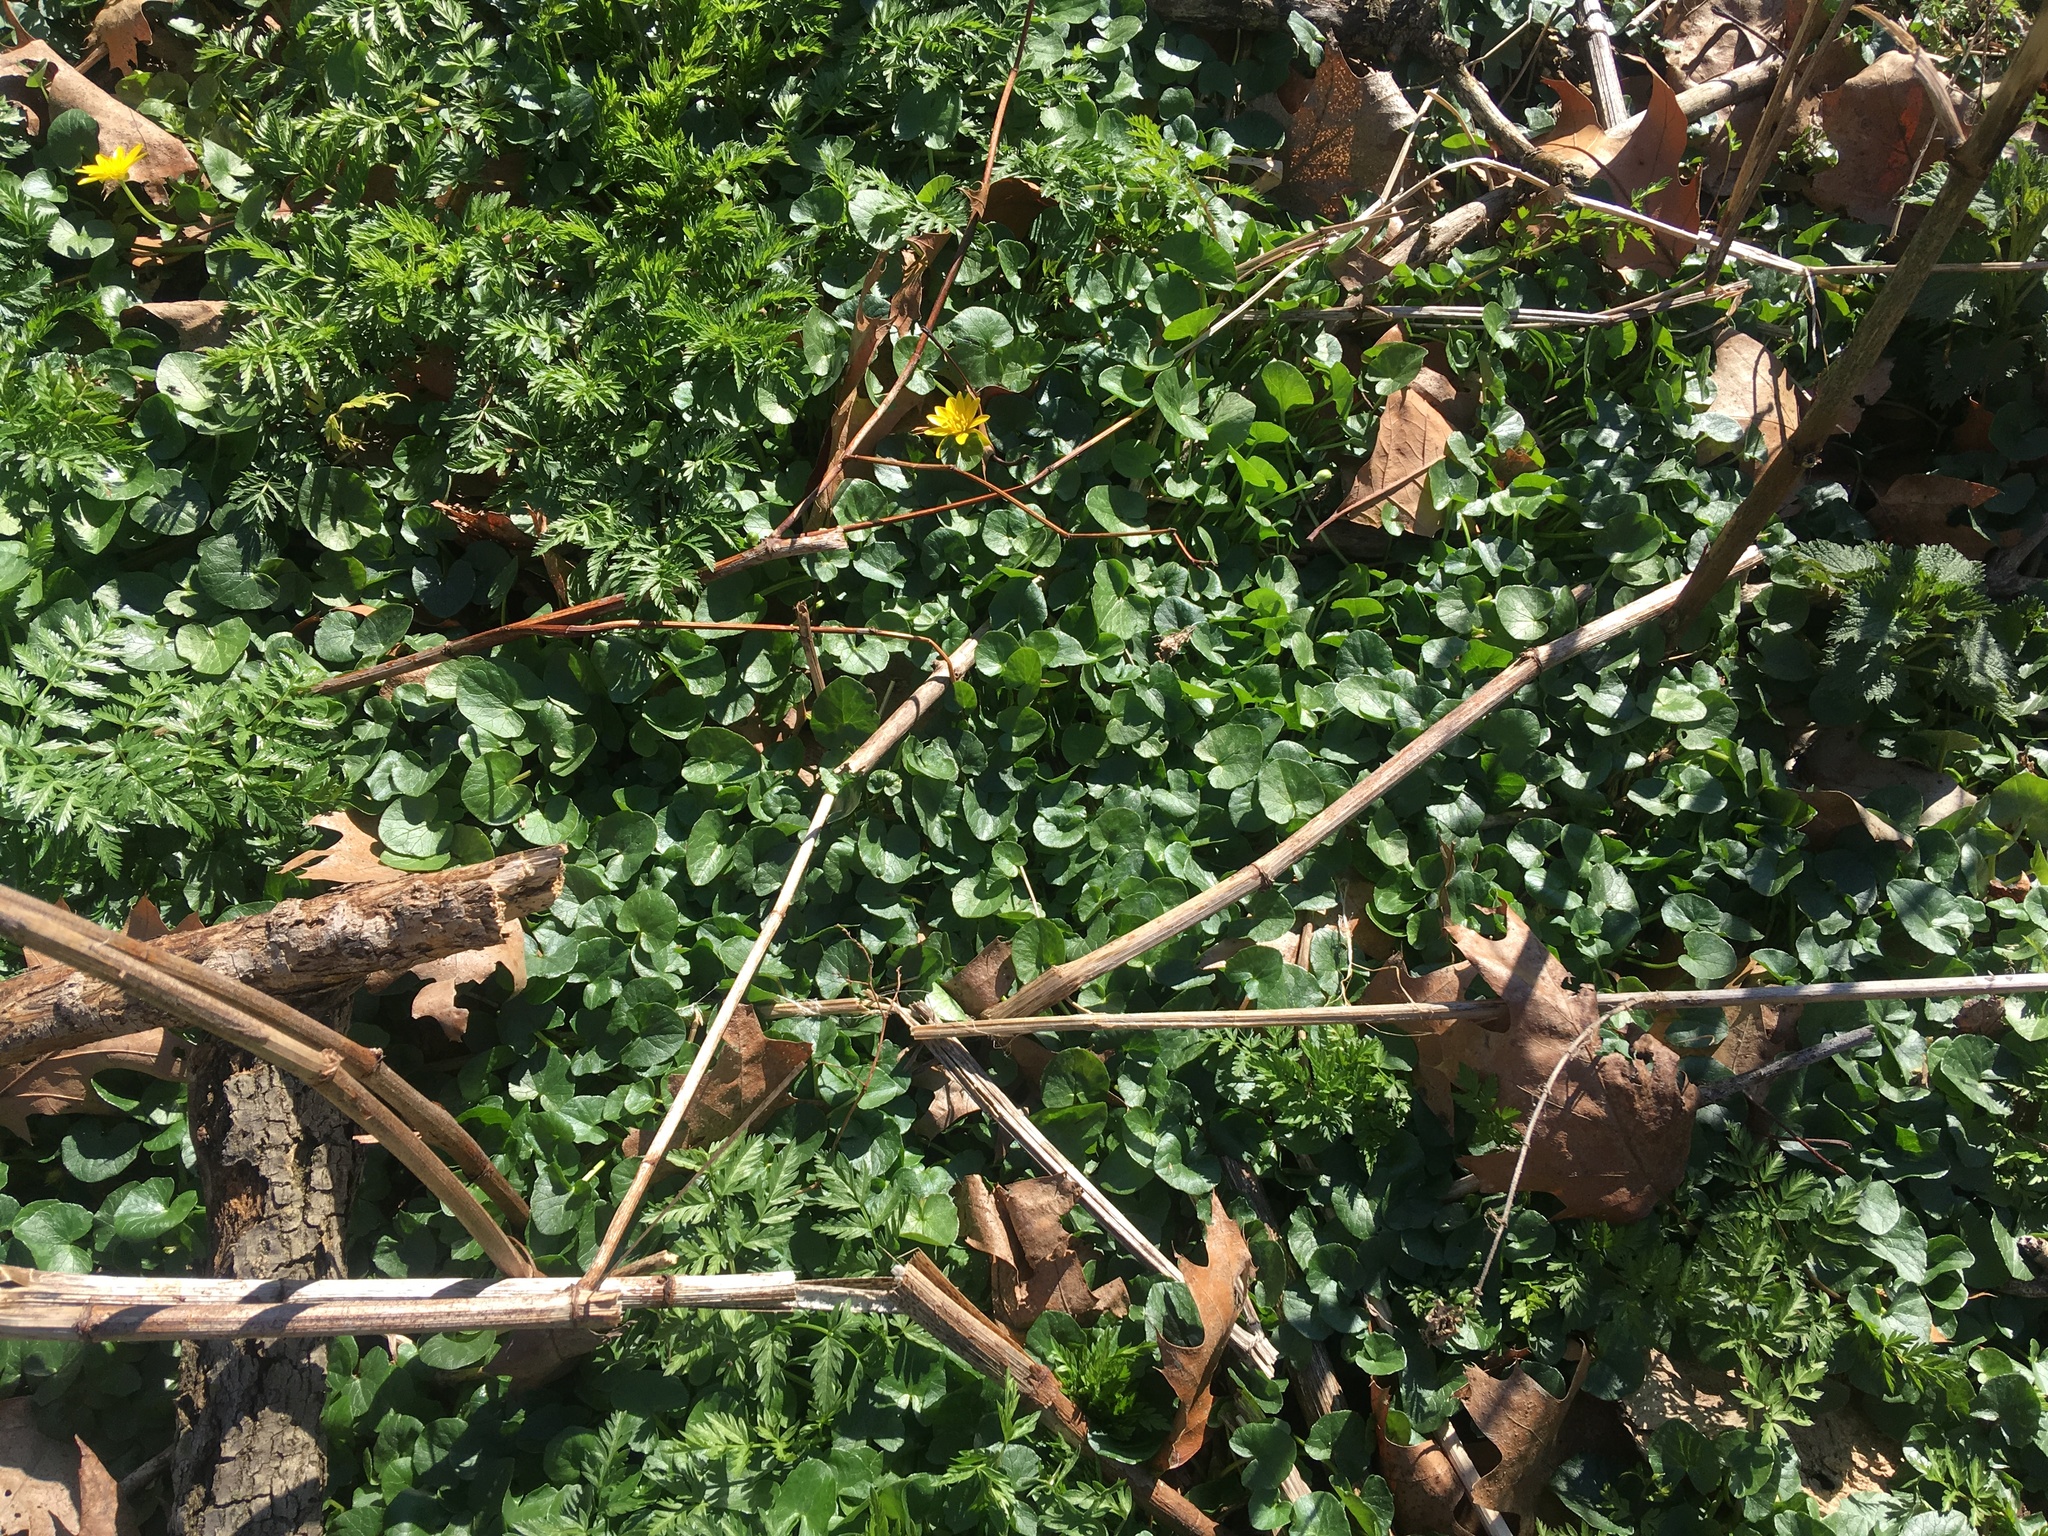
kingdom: Plantae
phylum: Tracheophyta
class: Magnoliopsida
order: Ranunculales
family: Ranunculaceae
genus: Ficaria
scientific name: Ficaria verna
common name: Lesser celandine
